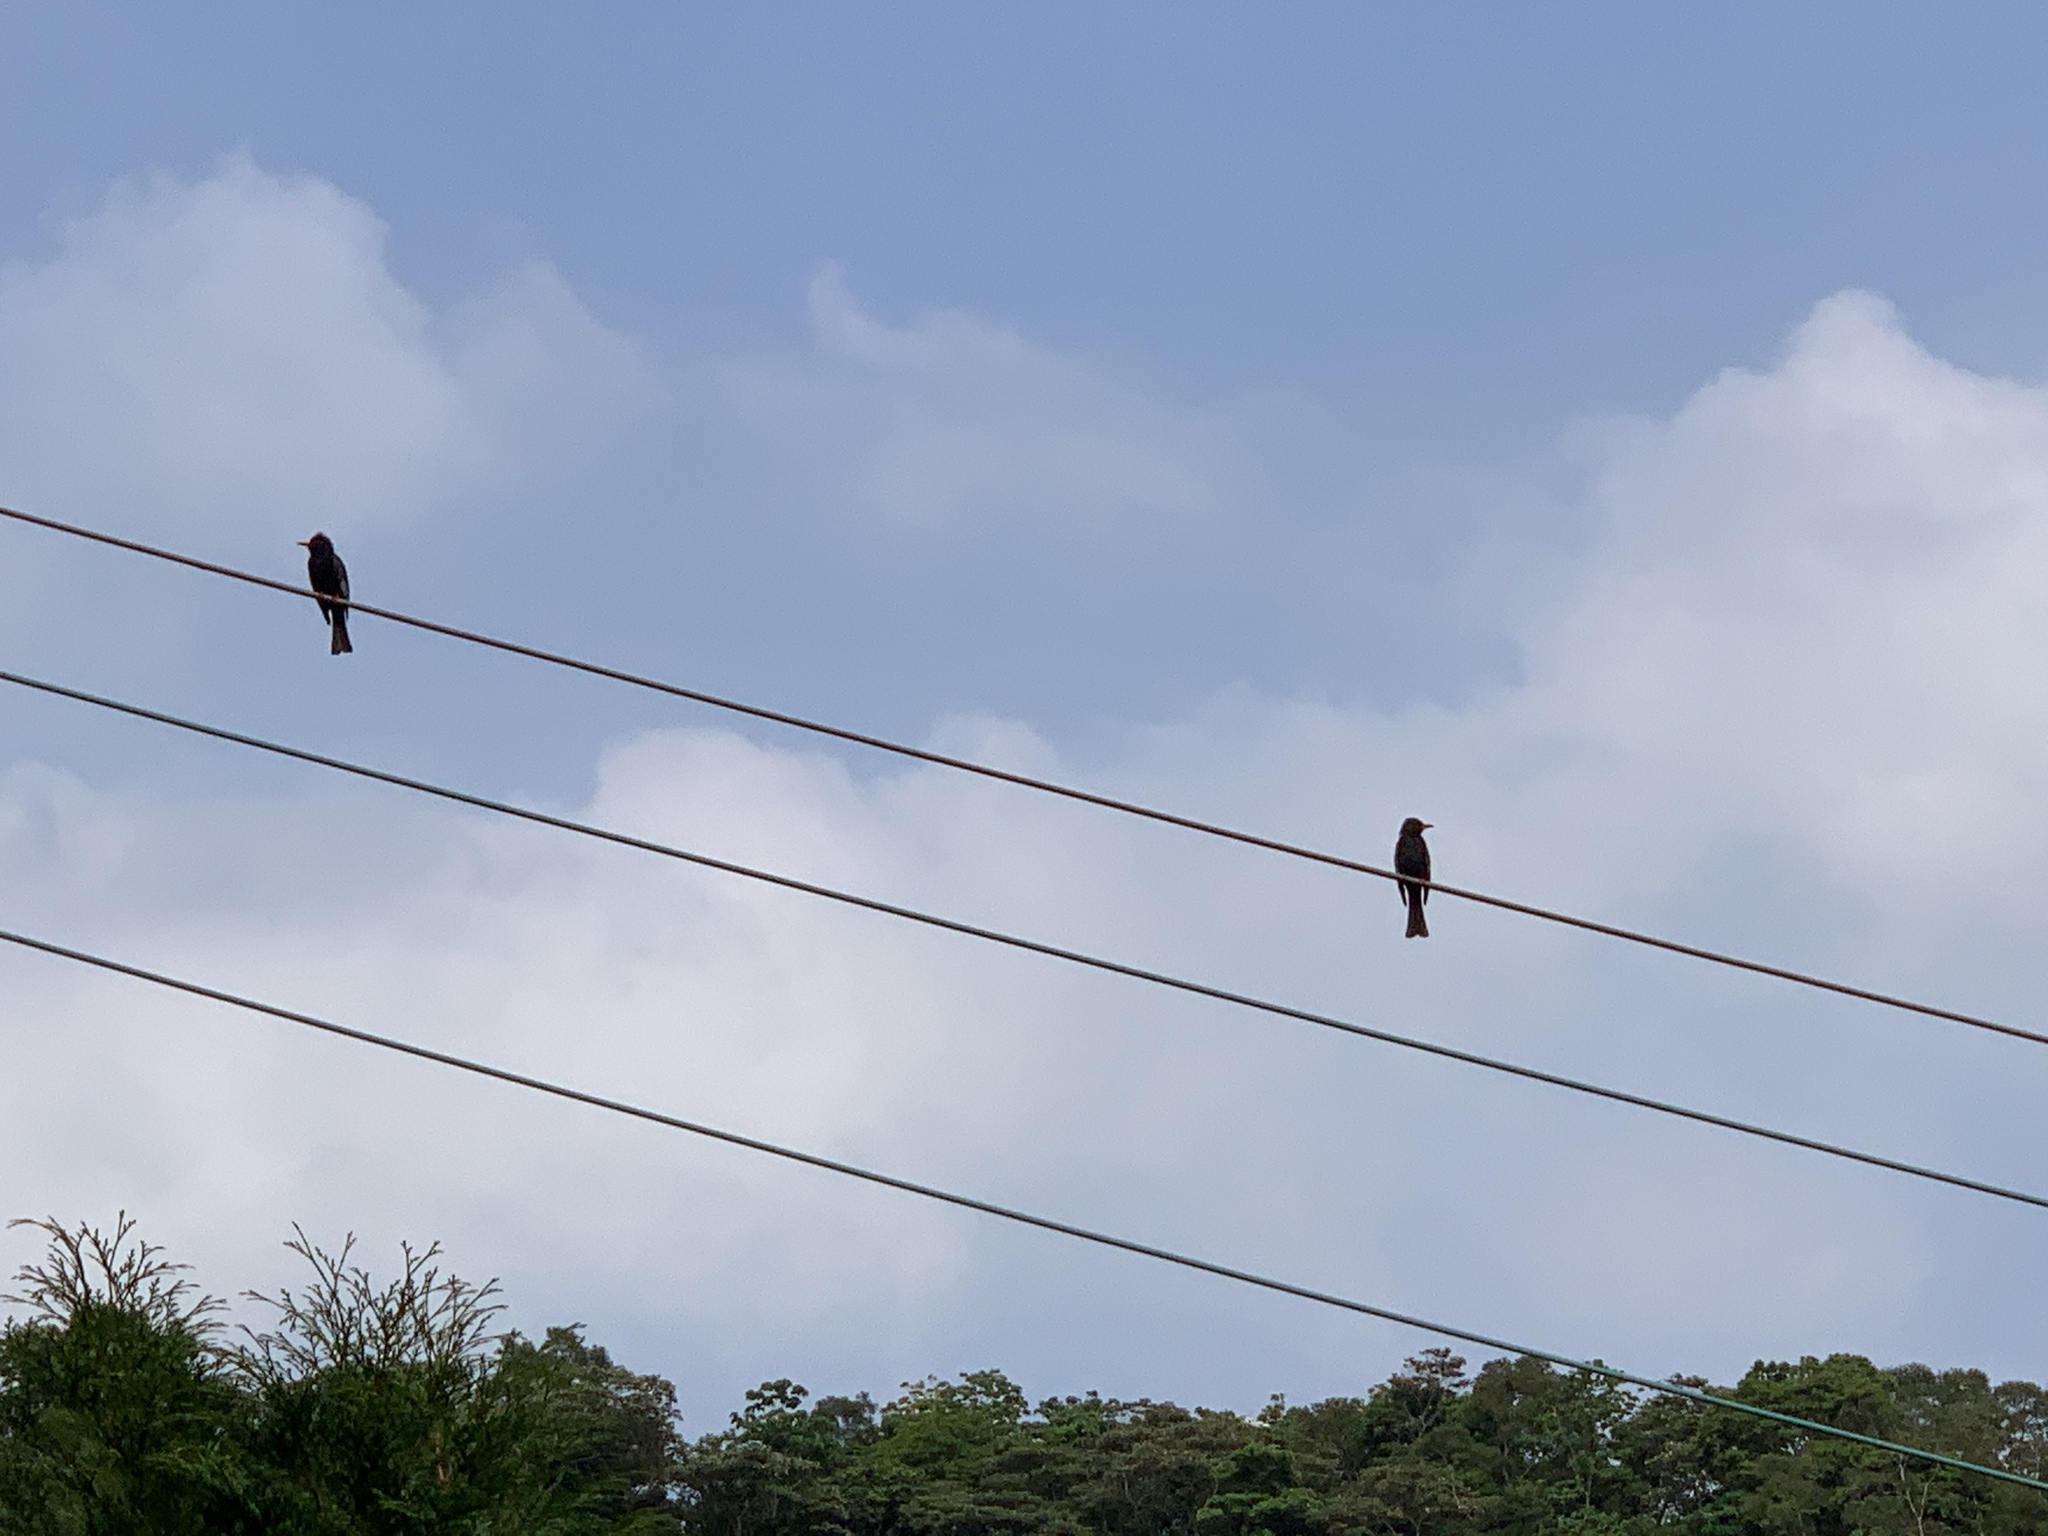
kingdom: Animalia
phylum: Chordata
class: Aves
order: Passeriformes
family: Pycnonotidae
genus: Hypsipetes
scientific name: Hypsipetes leucocephalus
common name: Black bulbul
